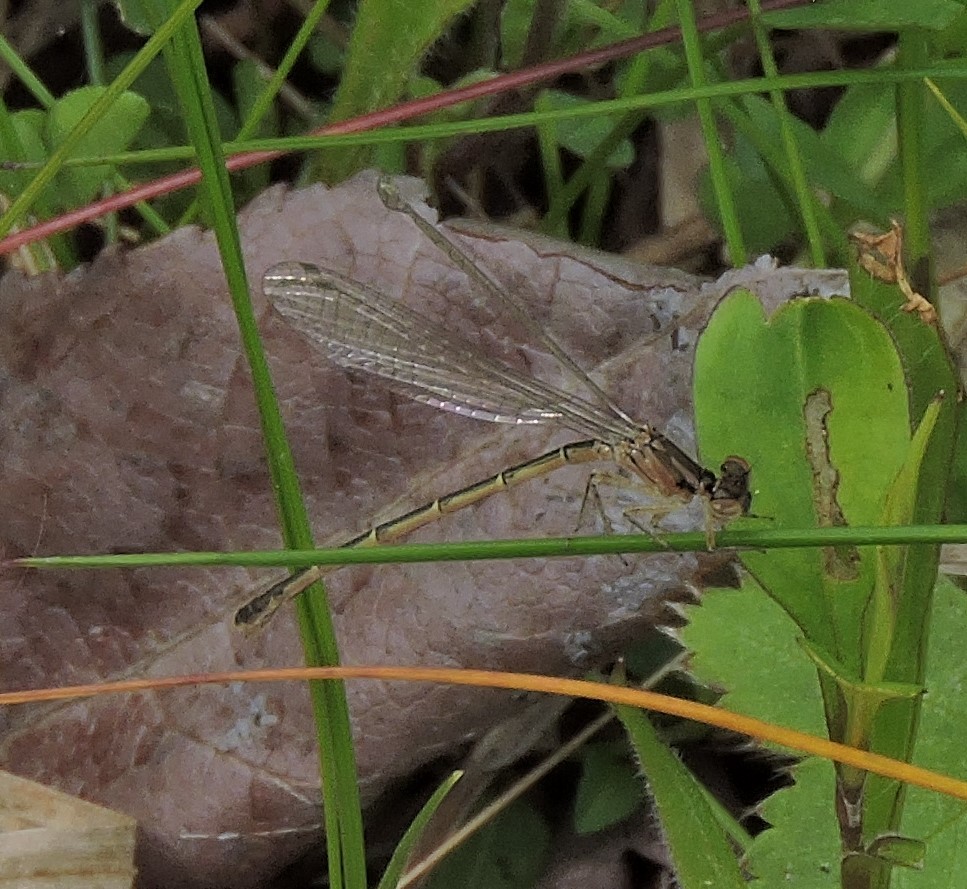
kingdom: Animalia
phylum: Arthropoda
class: Insecta
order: Odonata
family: Coenagrionidae
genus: Ischnura
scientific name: Ischnura posita
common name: Fragile forktail
